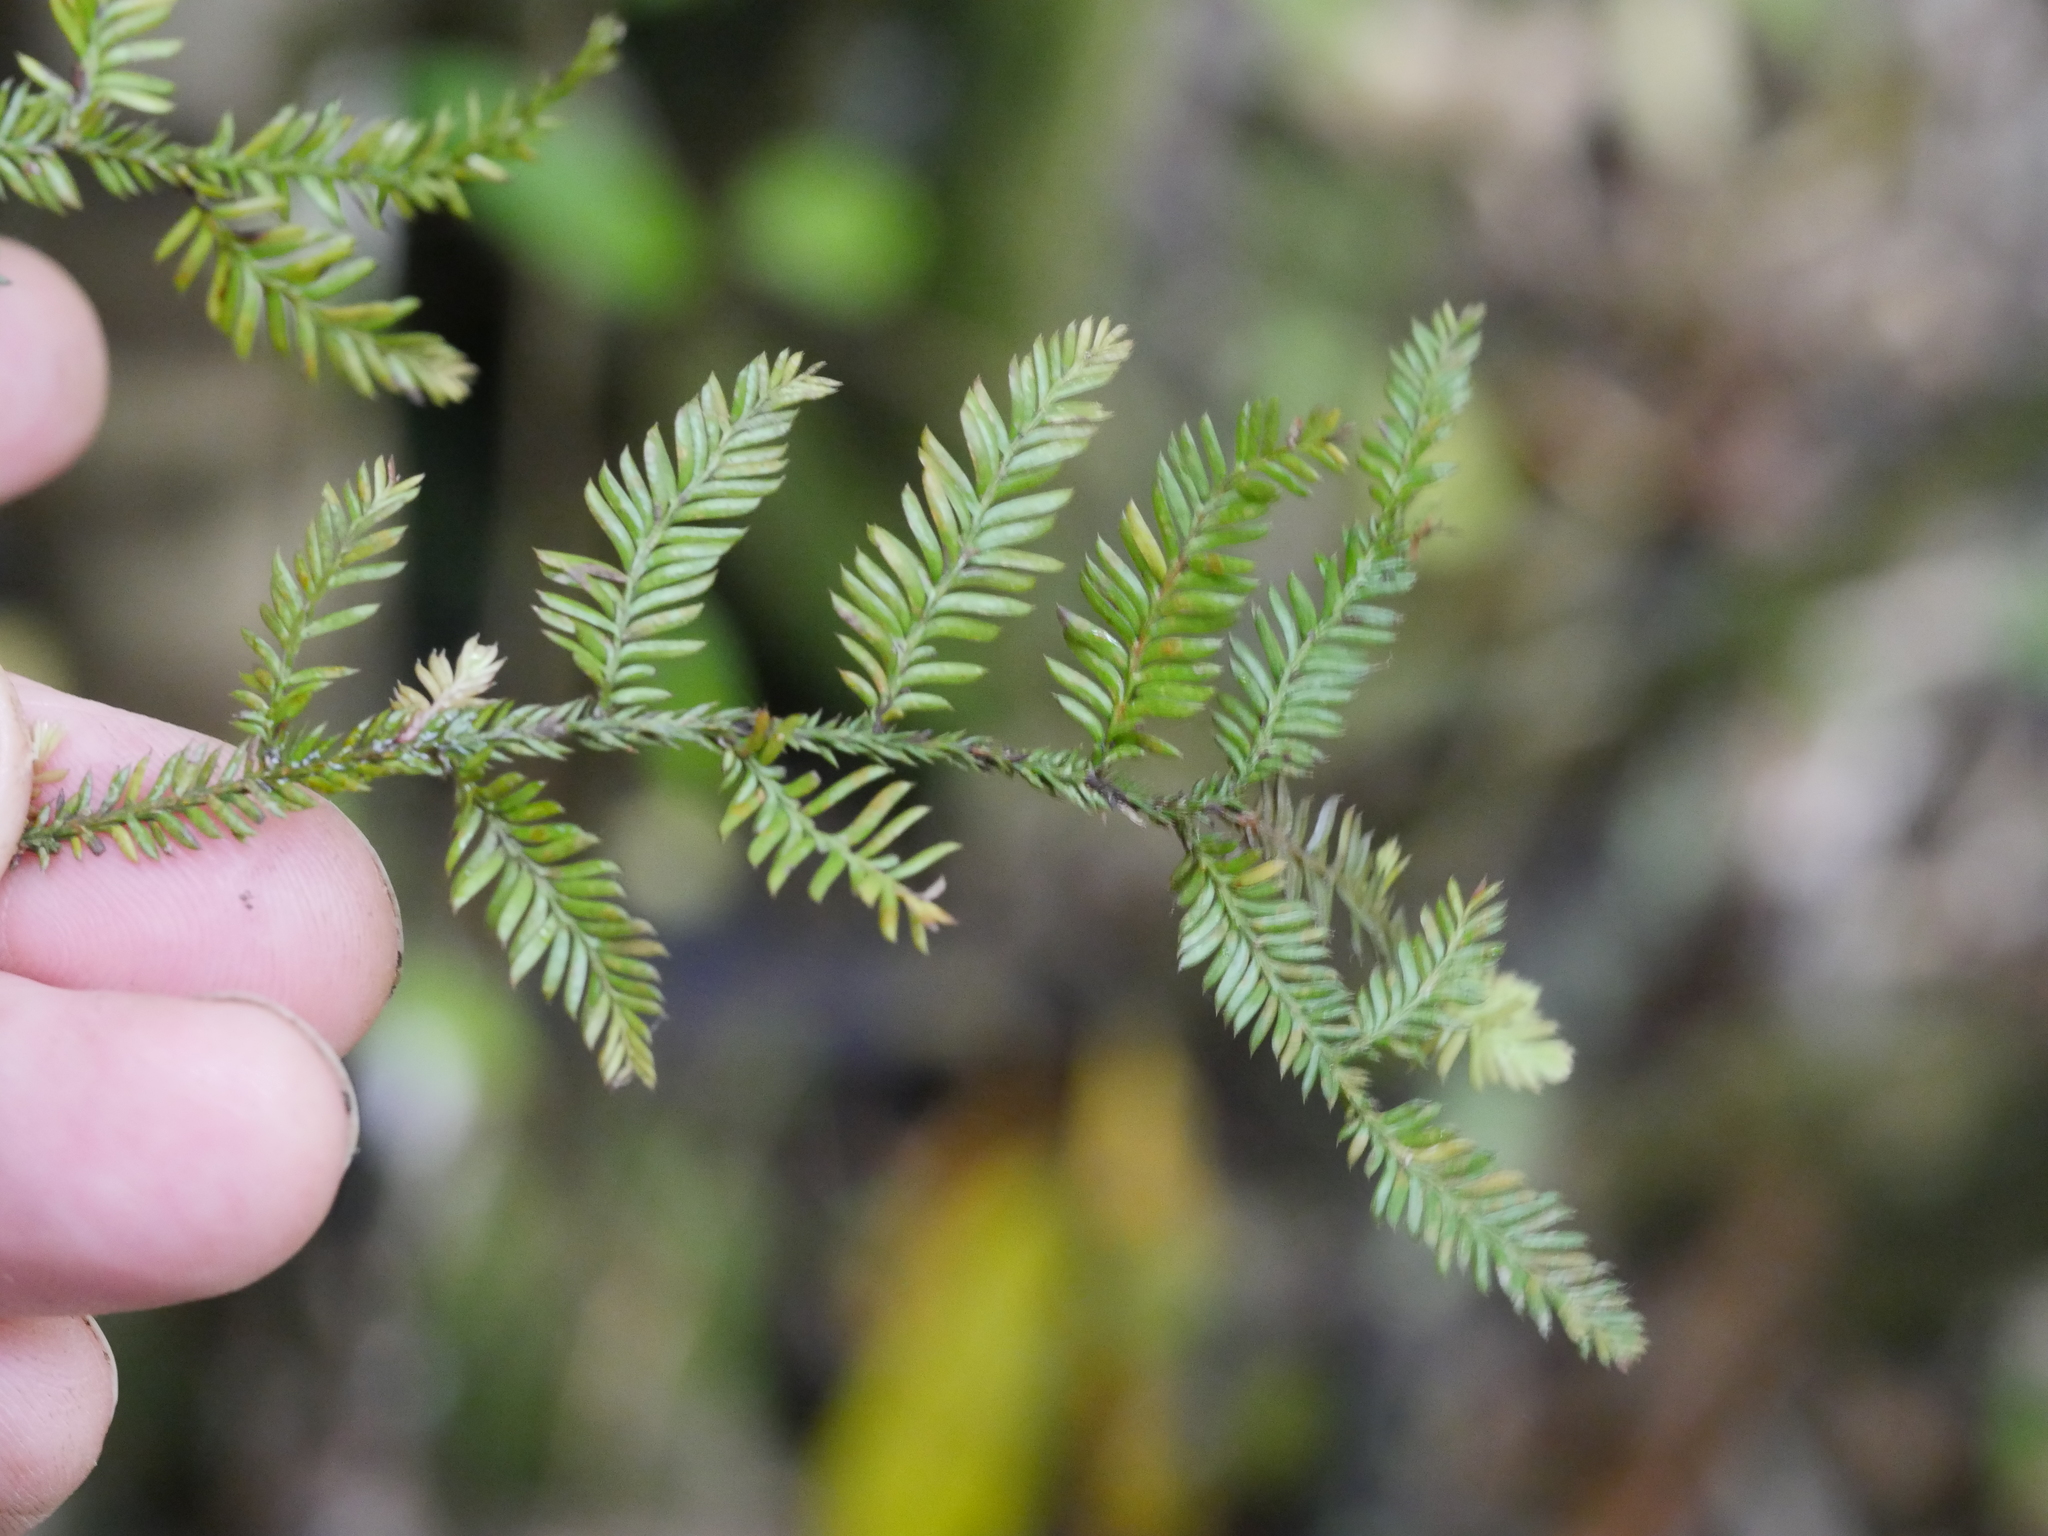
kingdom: Plantae
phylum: Tracheophyta
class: Pinopsida
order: Pinales
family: Podocarpaceae
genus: Dacrycarpus
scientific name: Dacrycarpus dacrydioides
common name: White pine
